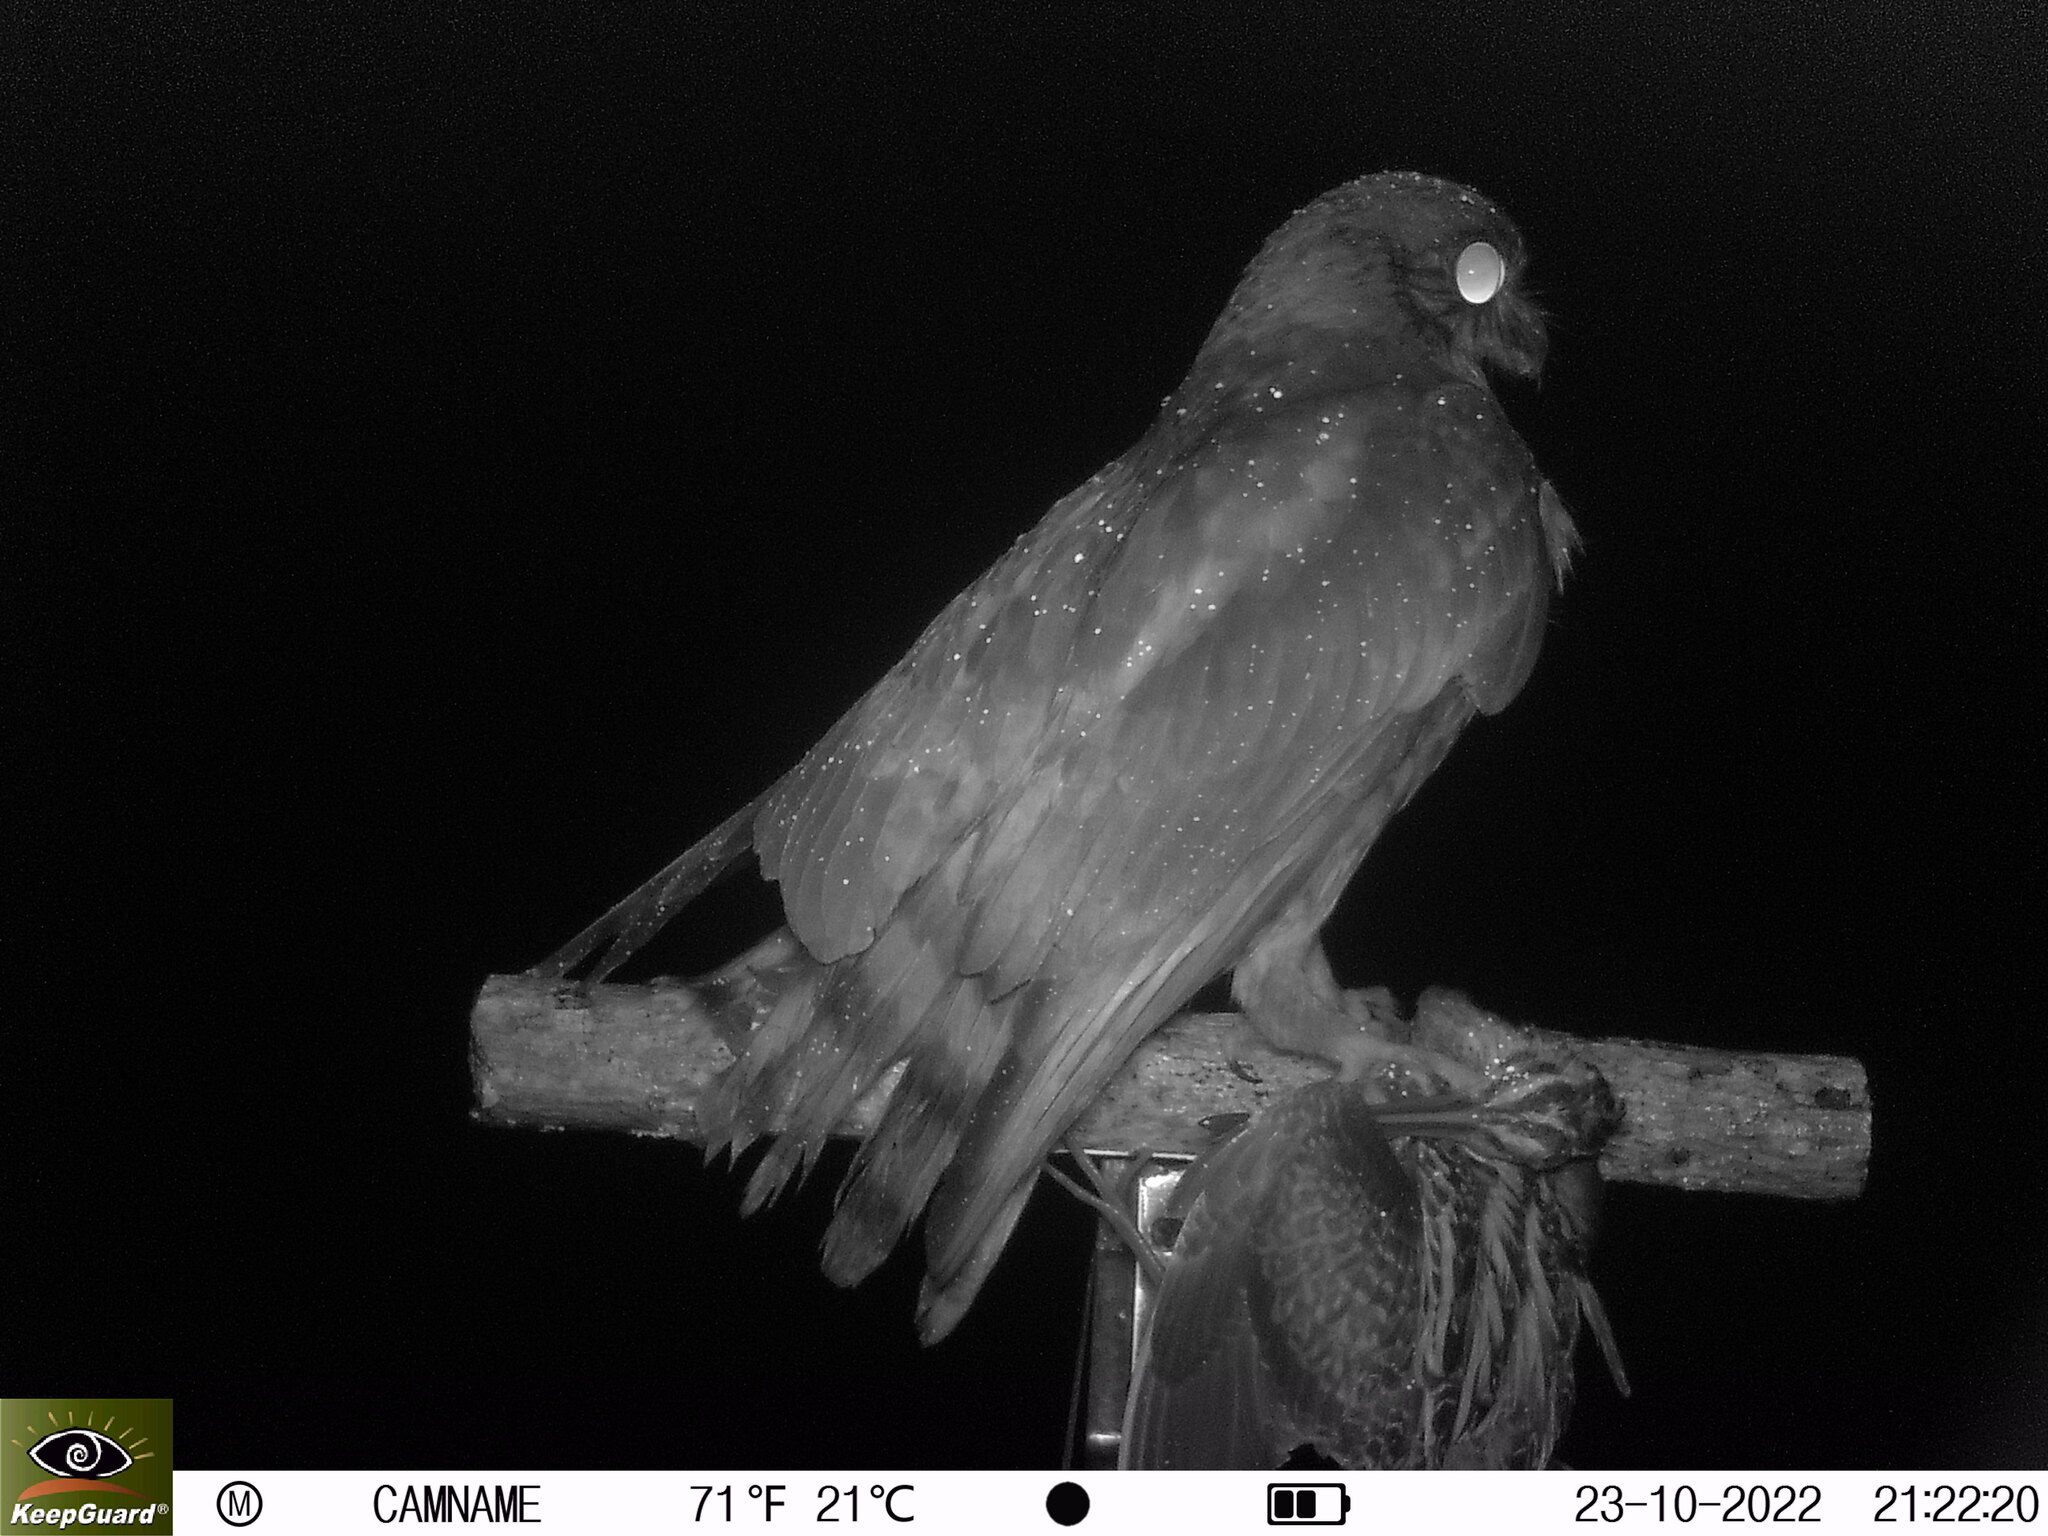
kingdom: Animalia
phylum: Chordata
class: Aves
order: Strigiformes
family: Strigidae
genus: Ninox
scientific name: Ninox japonica
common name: Northern boobook
